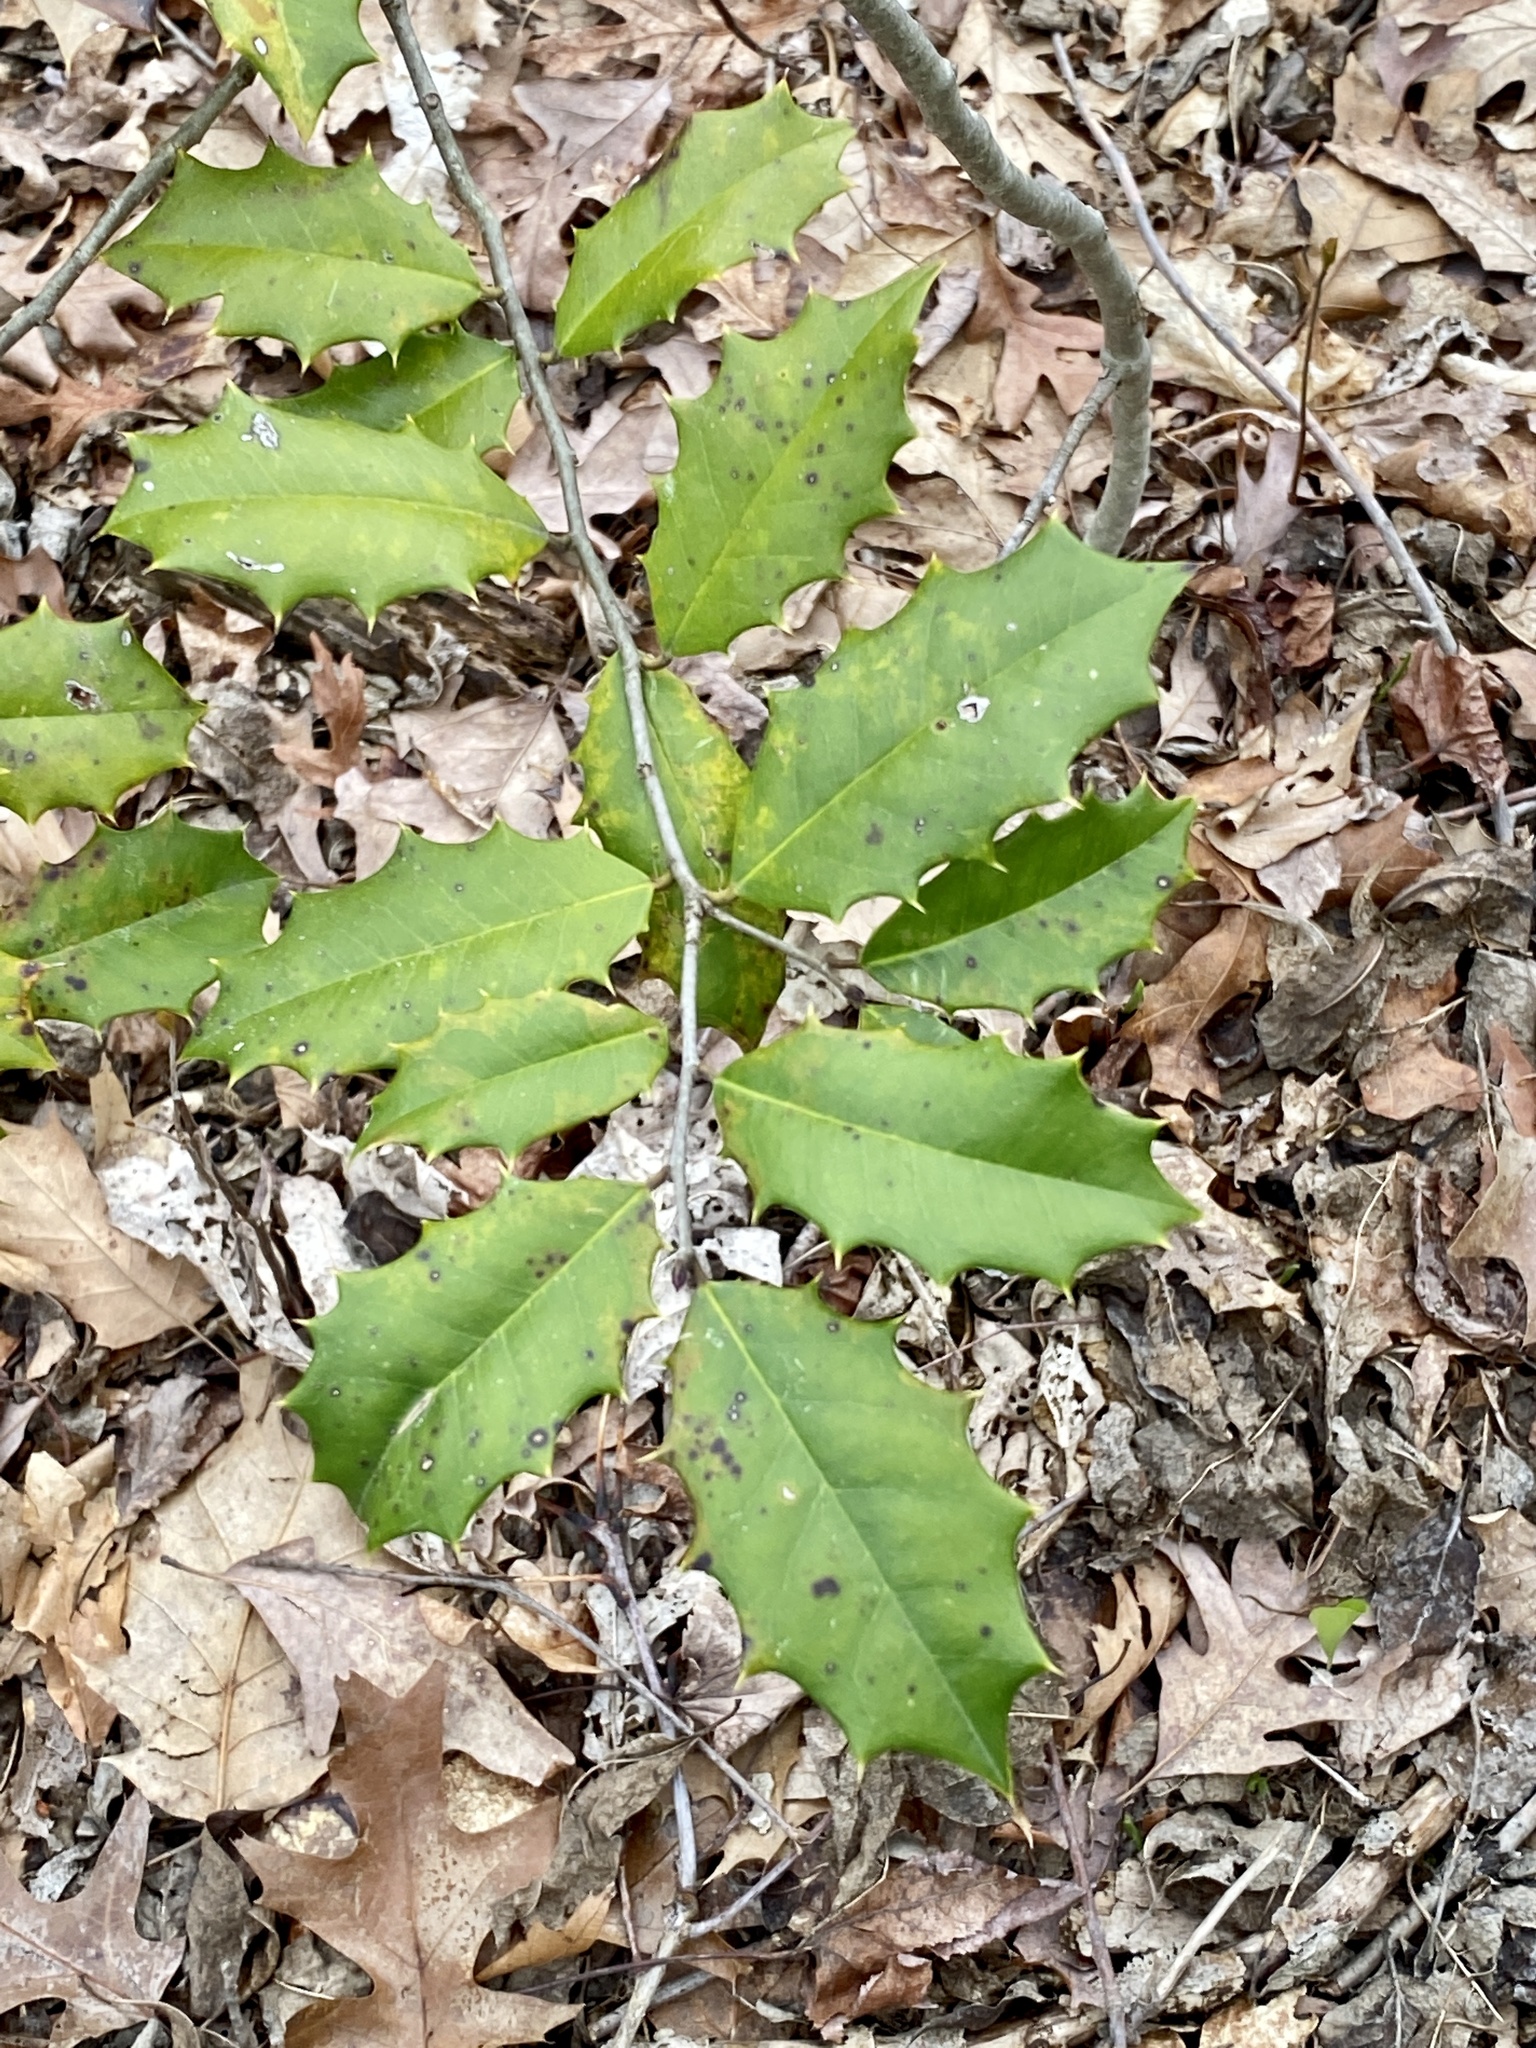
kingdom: Plantae
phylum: Tracheophyta
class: Magnoliopsida
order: Aquifoliales
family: Aquifoliaceae
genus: Ilex
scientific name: Ilex opaca
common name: American holly
